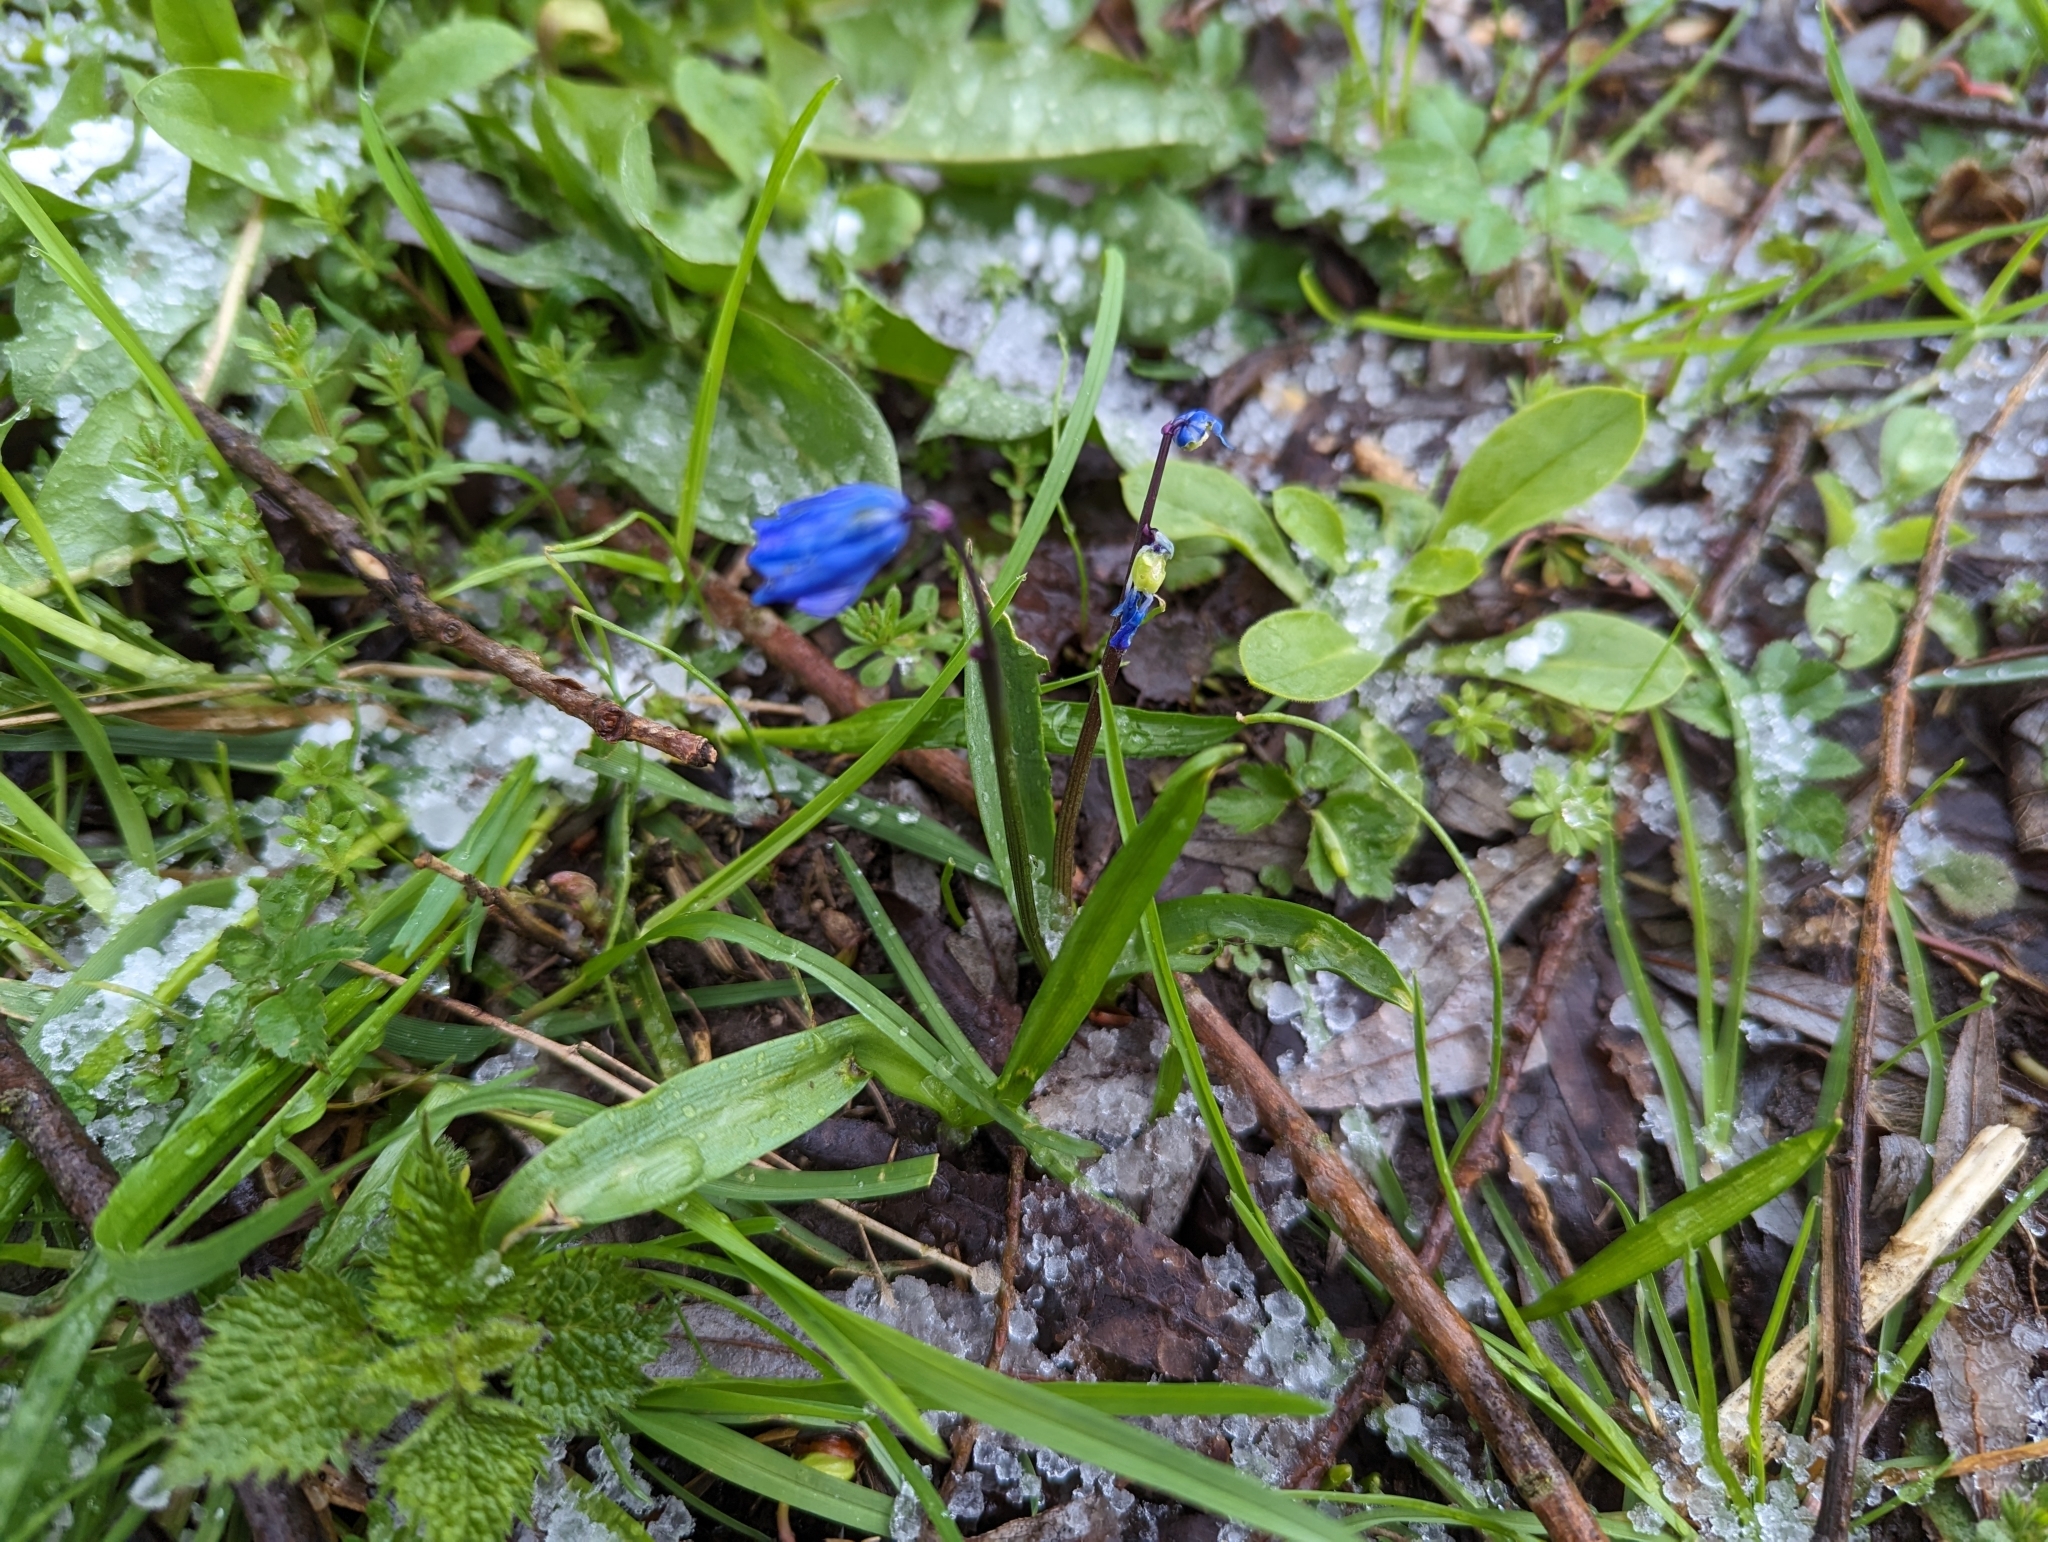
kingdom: Plantae
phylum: Tracheophyta
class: Liliopsida
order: Asparagales
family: Asparagaceae
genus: Scilla
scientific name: Scilla siberica
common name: Siberian squill
